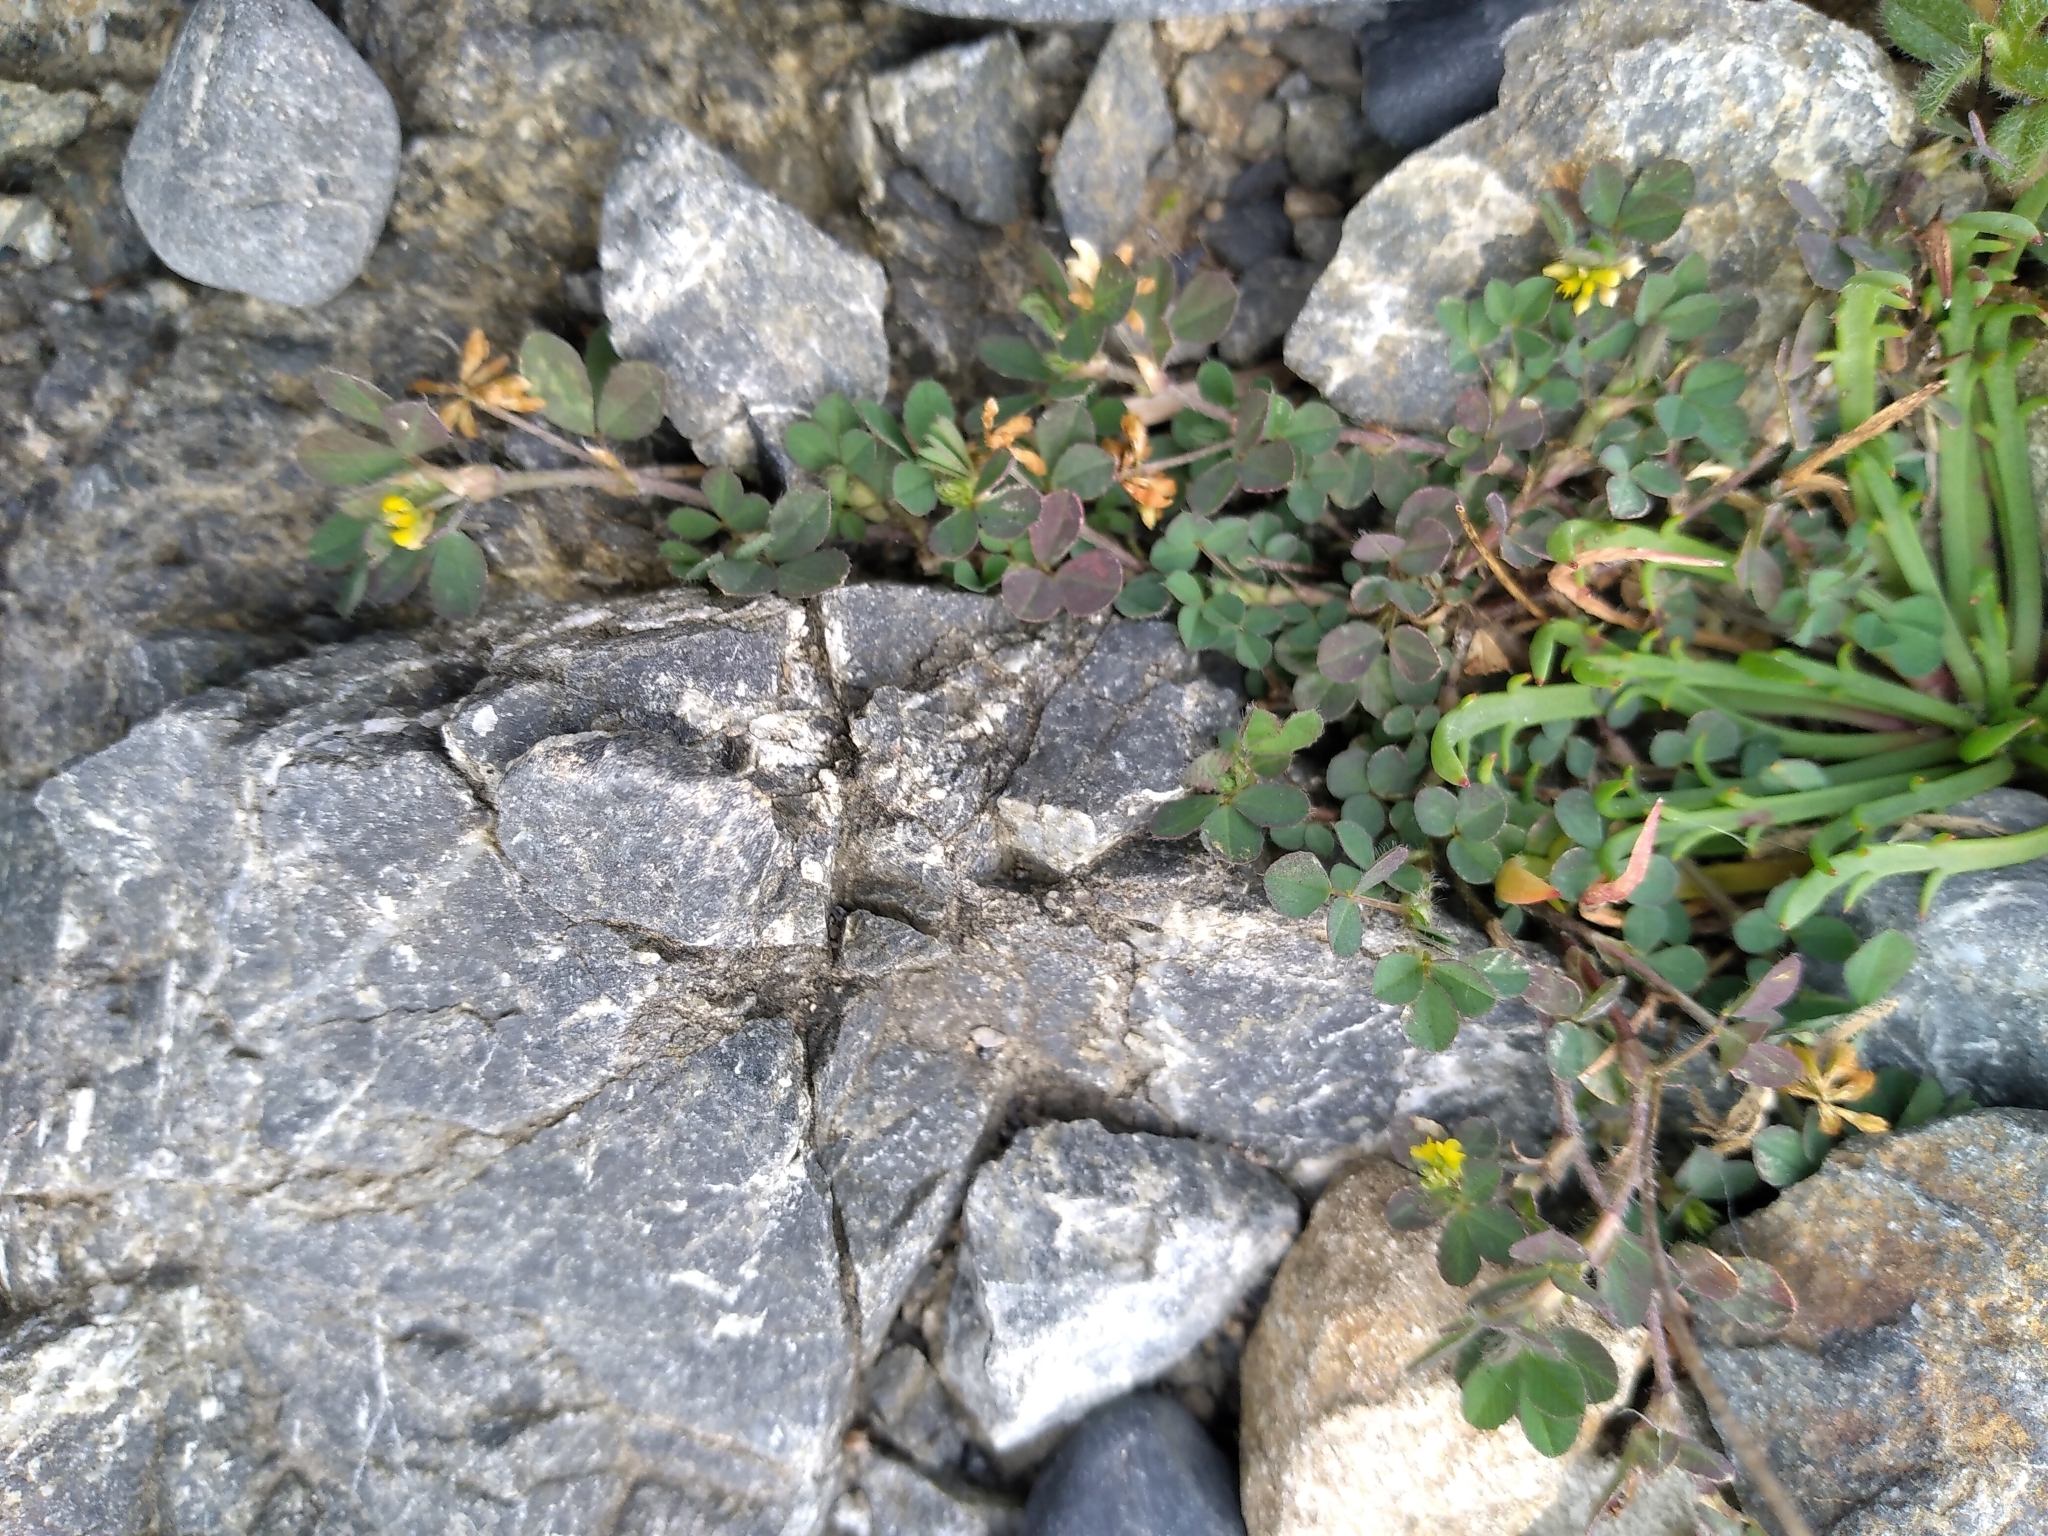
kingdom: Plantae
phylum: Tracheophyta
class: Magnoliopsida
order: Fabales
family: Fabaceae
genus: Trifolium
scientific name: Trifolium dubium
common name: Suckling clover
